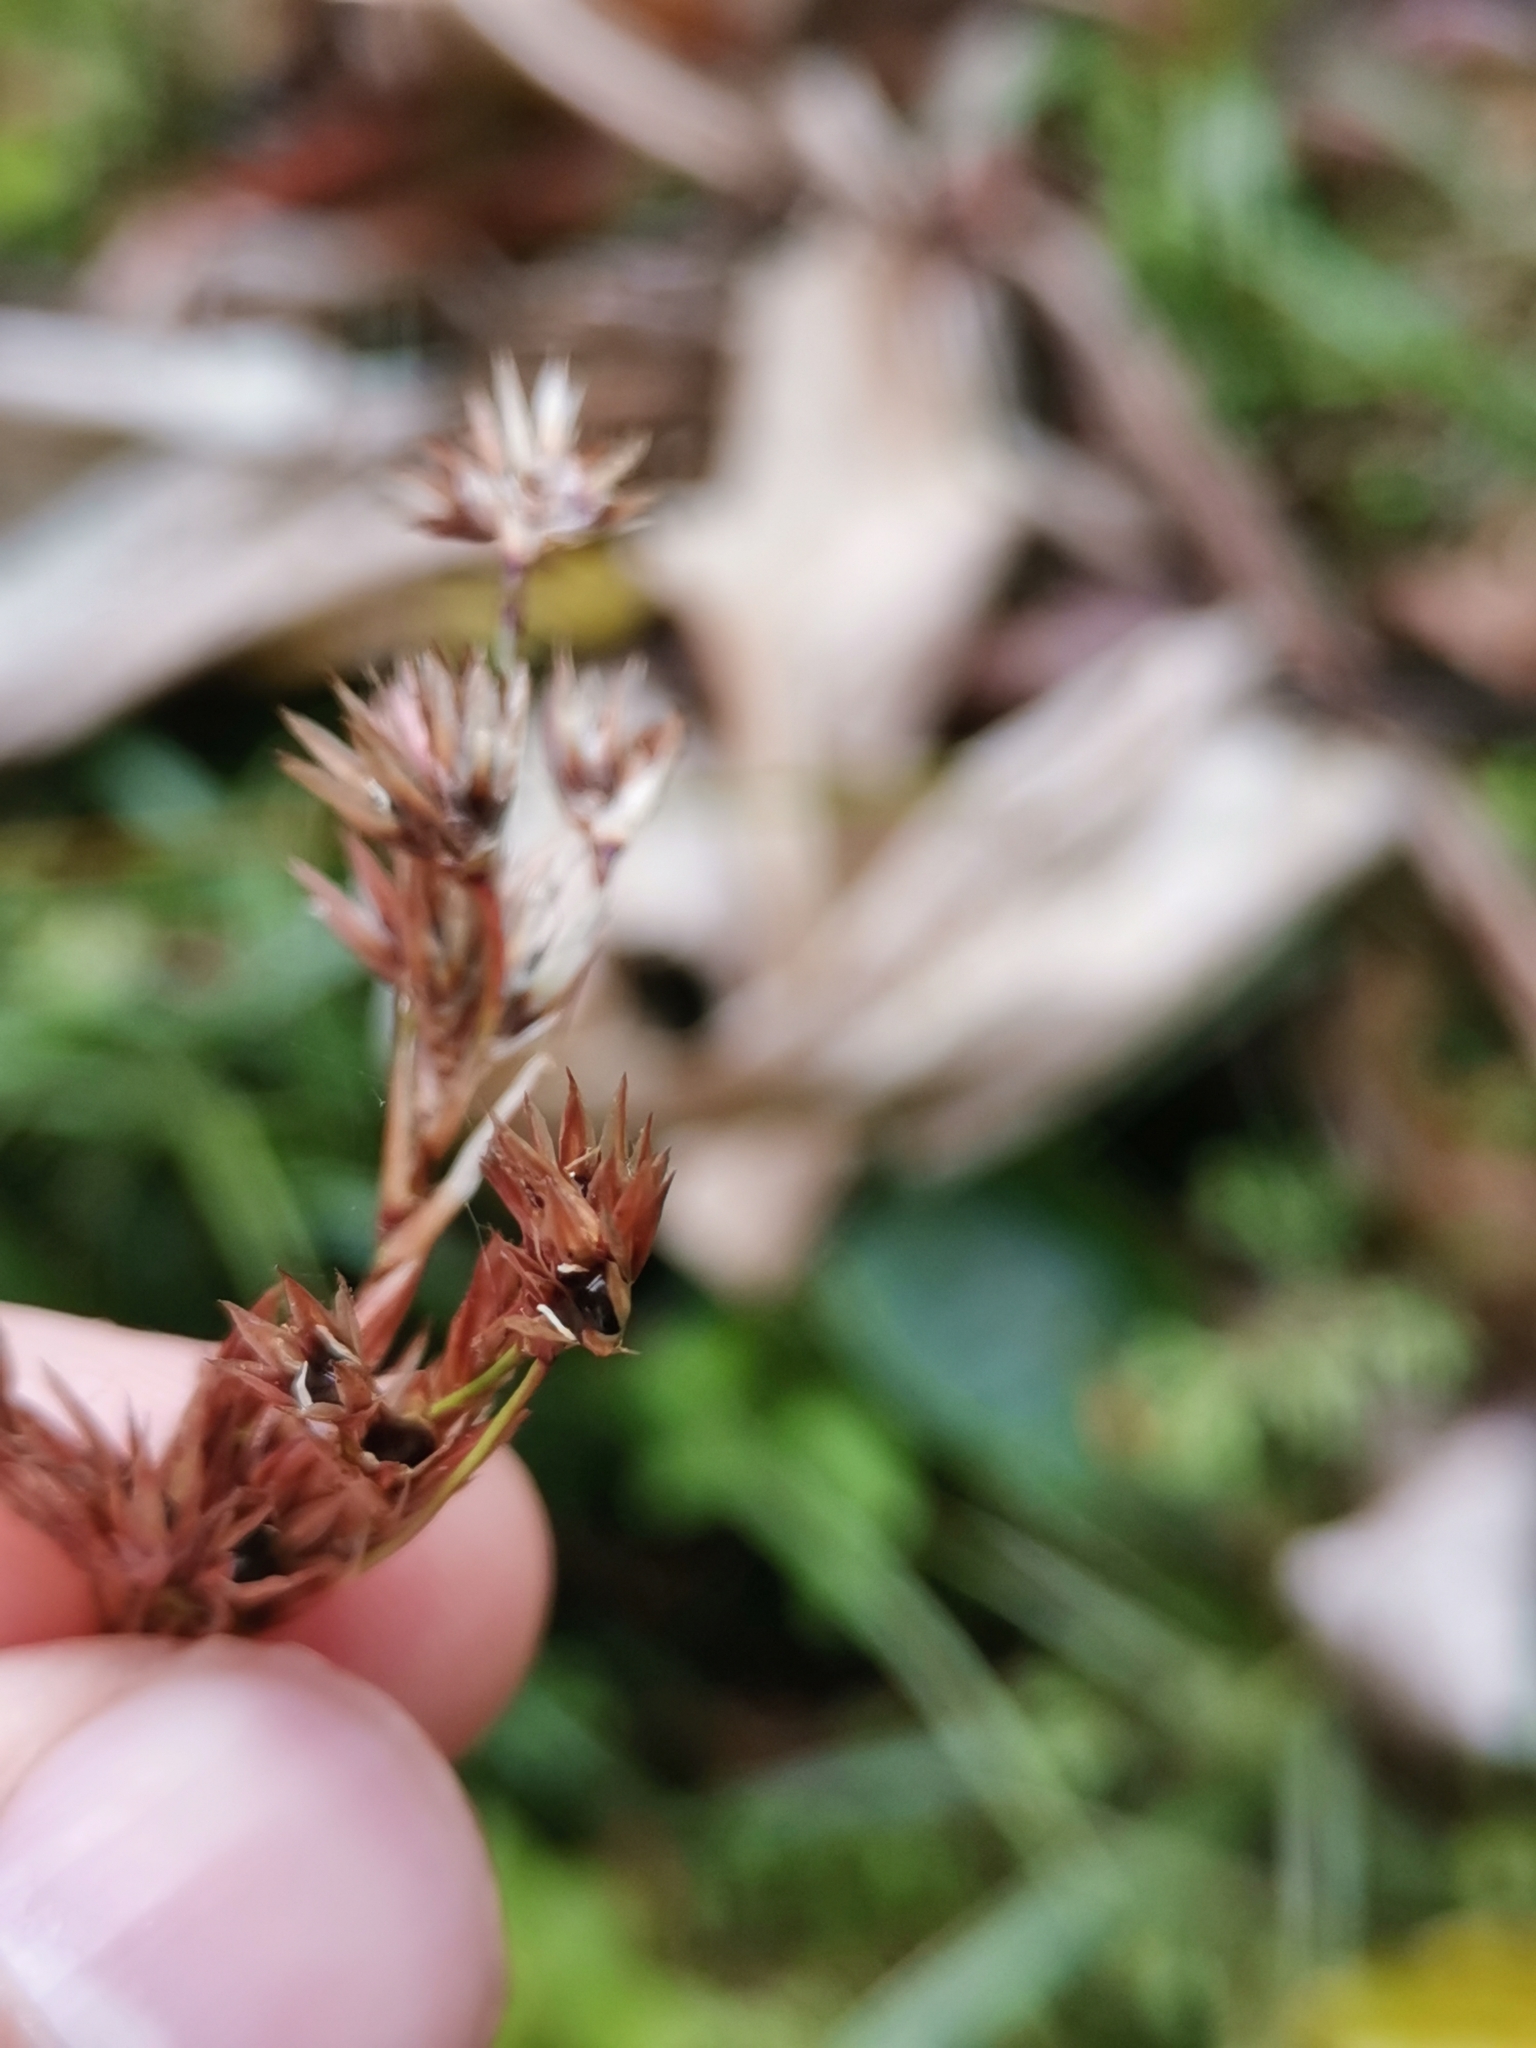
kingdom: Plantae
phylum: Tracheophyta
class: Liliopsida
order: Poales
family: Juncaceae
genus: Luzula
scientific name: Luzula purpureosplendens
